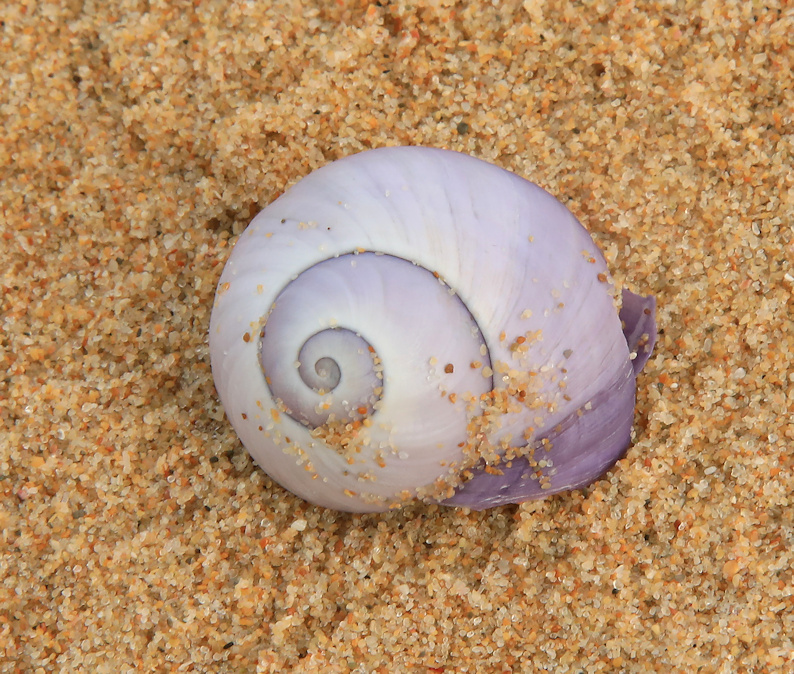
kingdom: Animalia
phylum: Mollusca
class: Gastropoda
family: Epitoniidae
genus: Janthina
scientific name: Janthina janthina
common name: Common janthina
